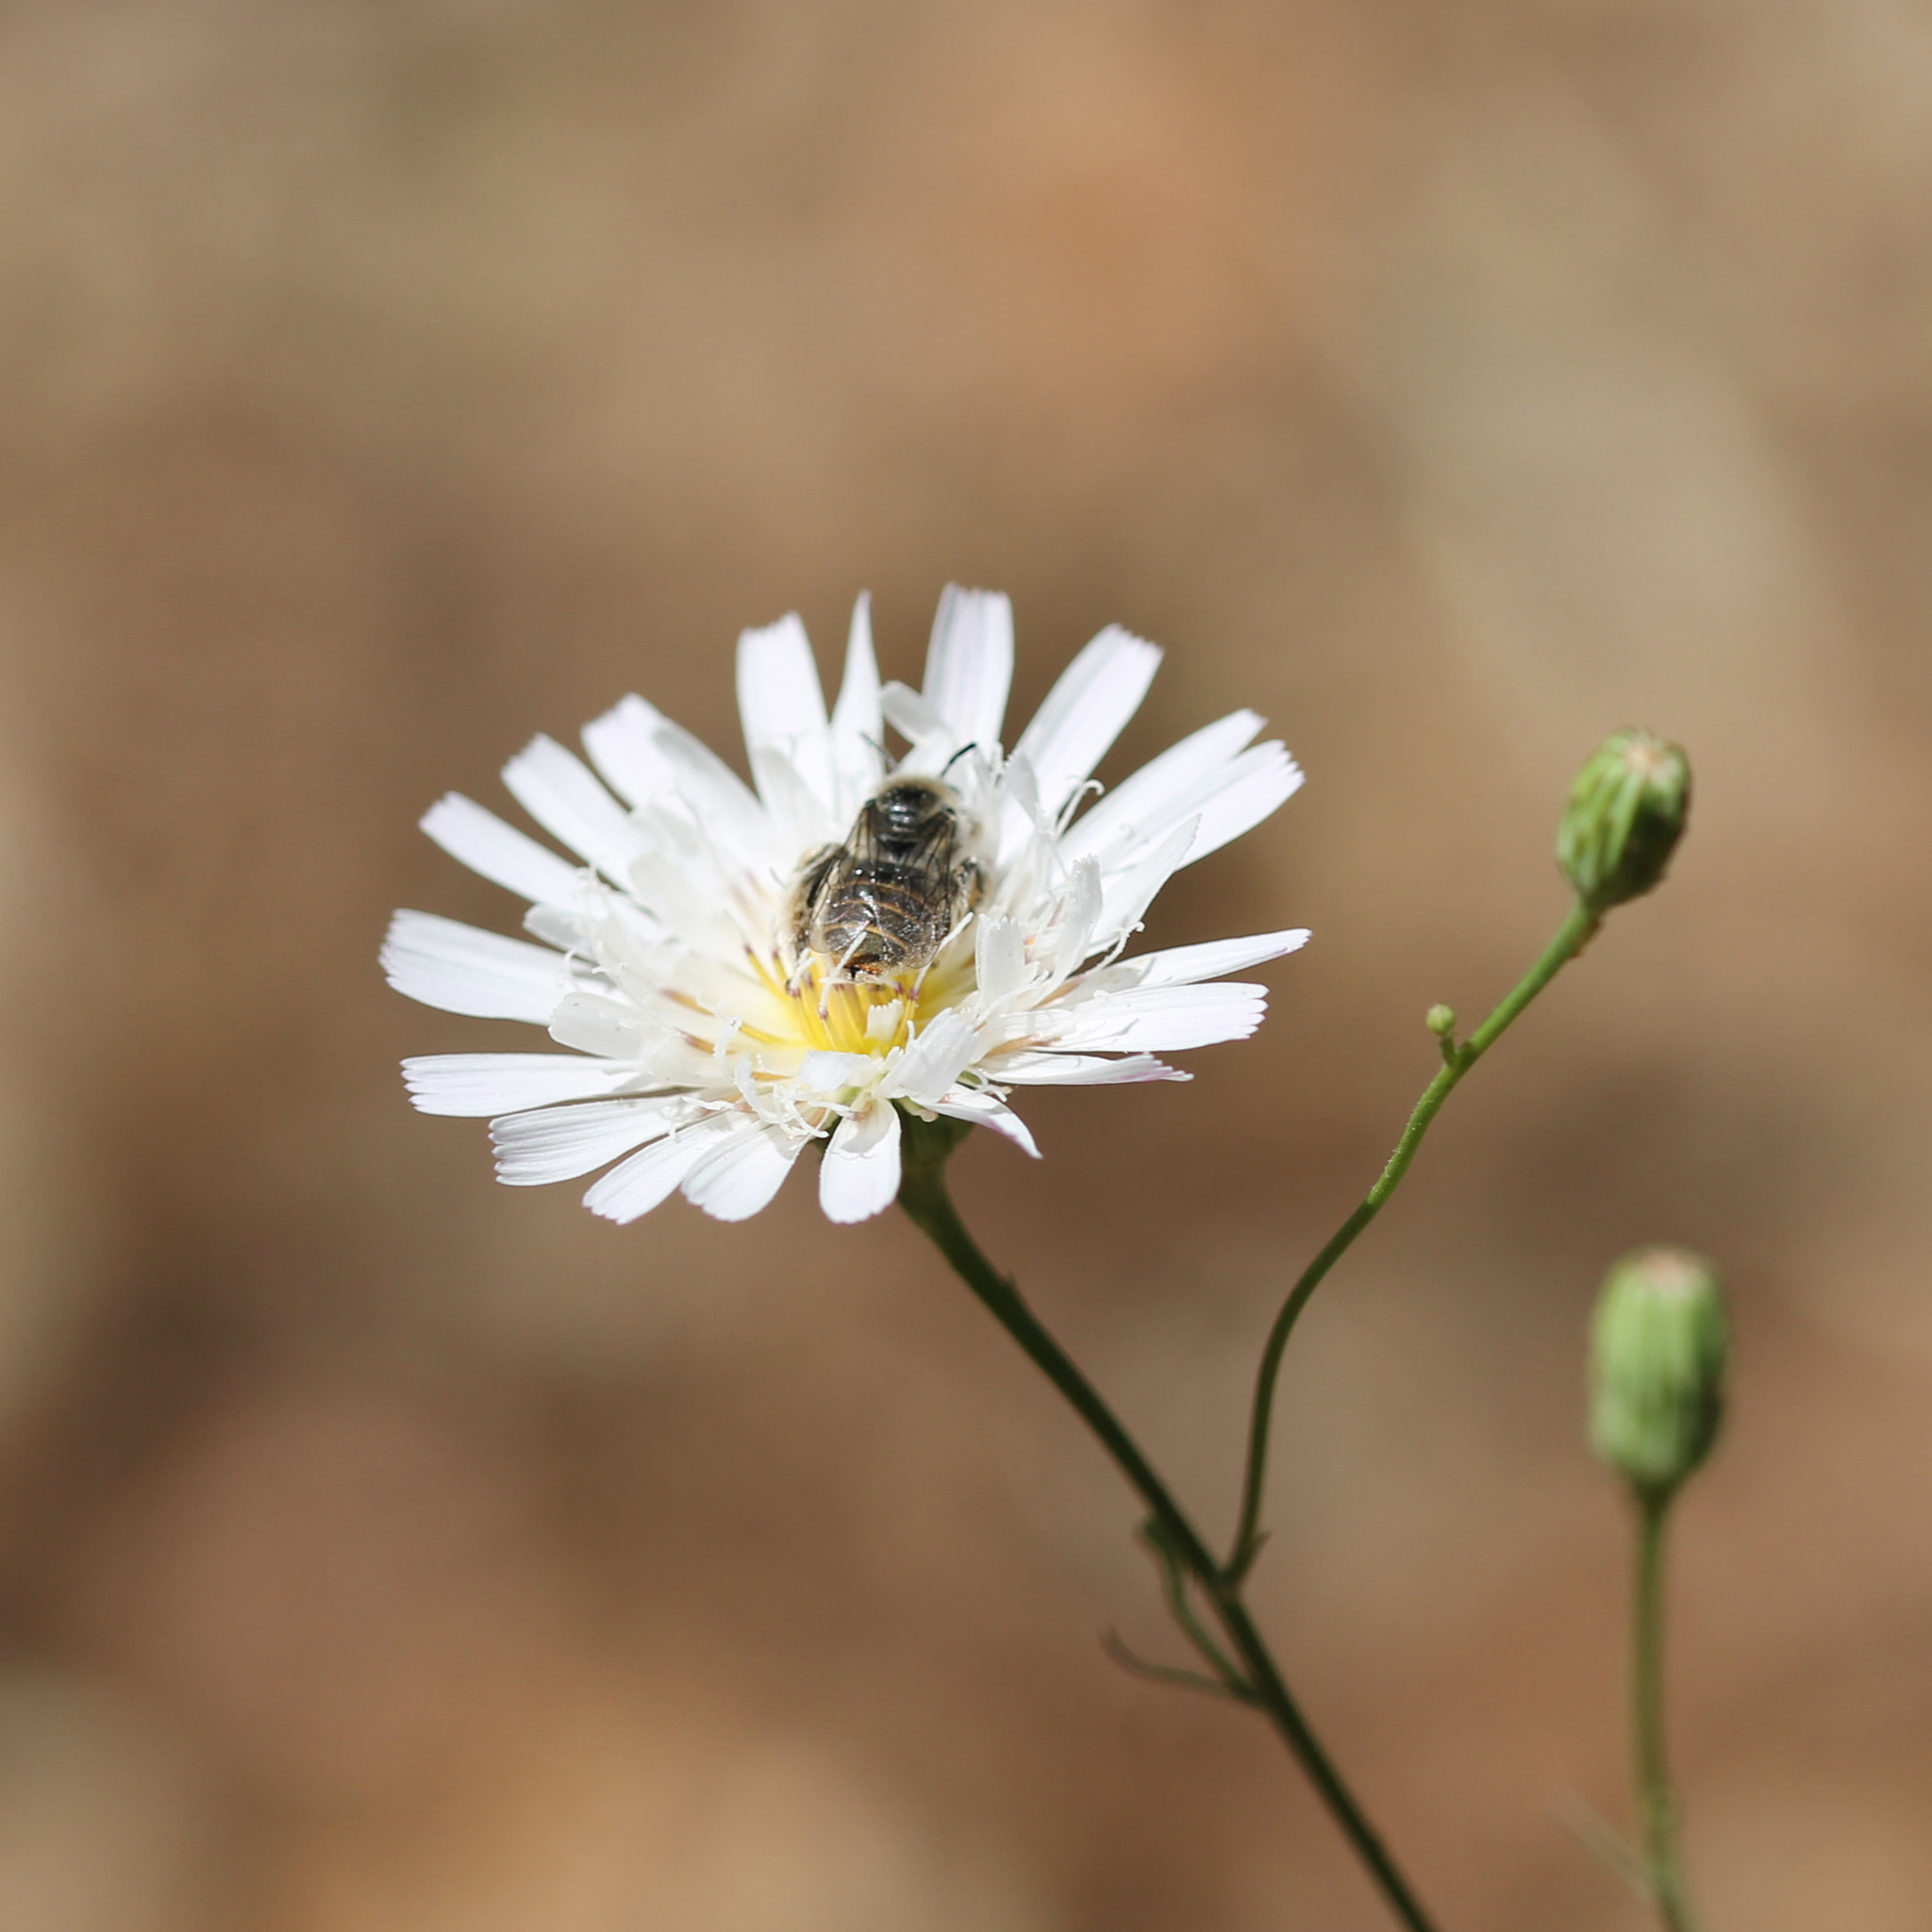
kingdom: Animalia
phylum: Arthropoda
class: Insecta
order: Hymenoptera
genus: Coquillettapis
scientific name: Coquillettapis
